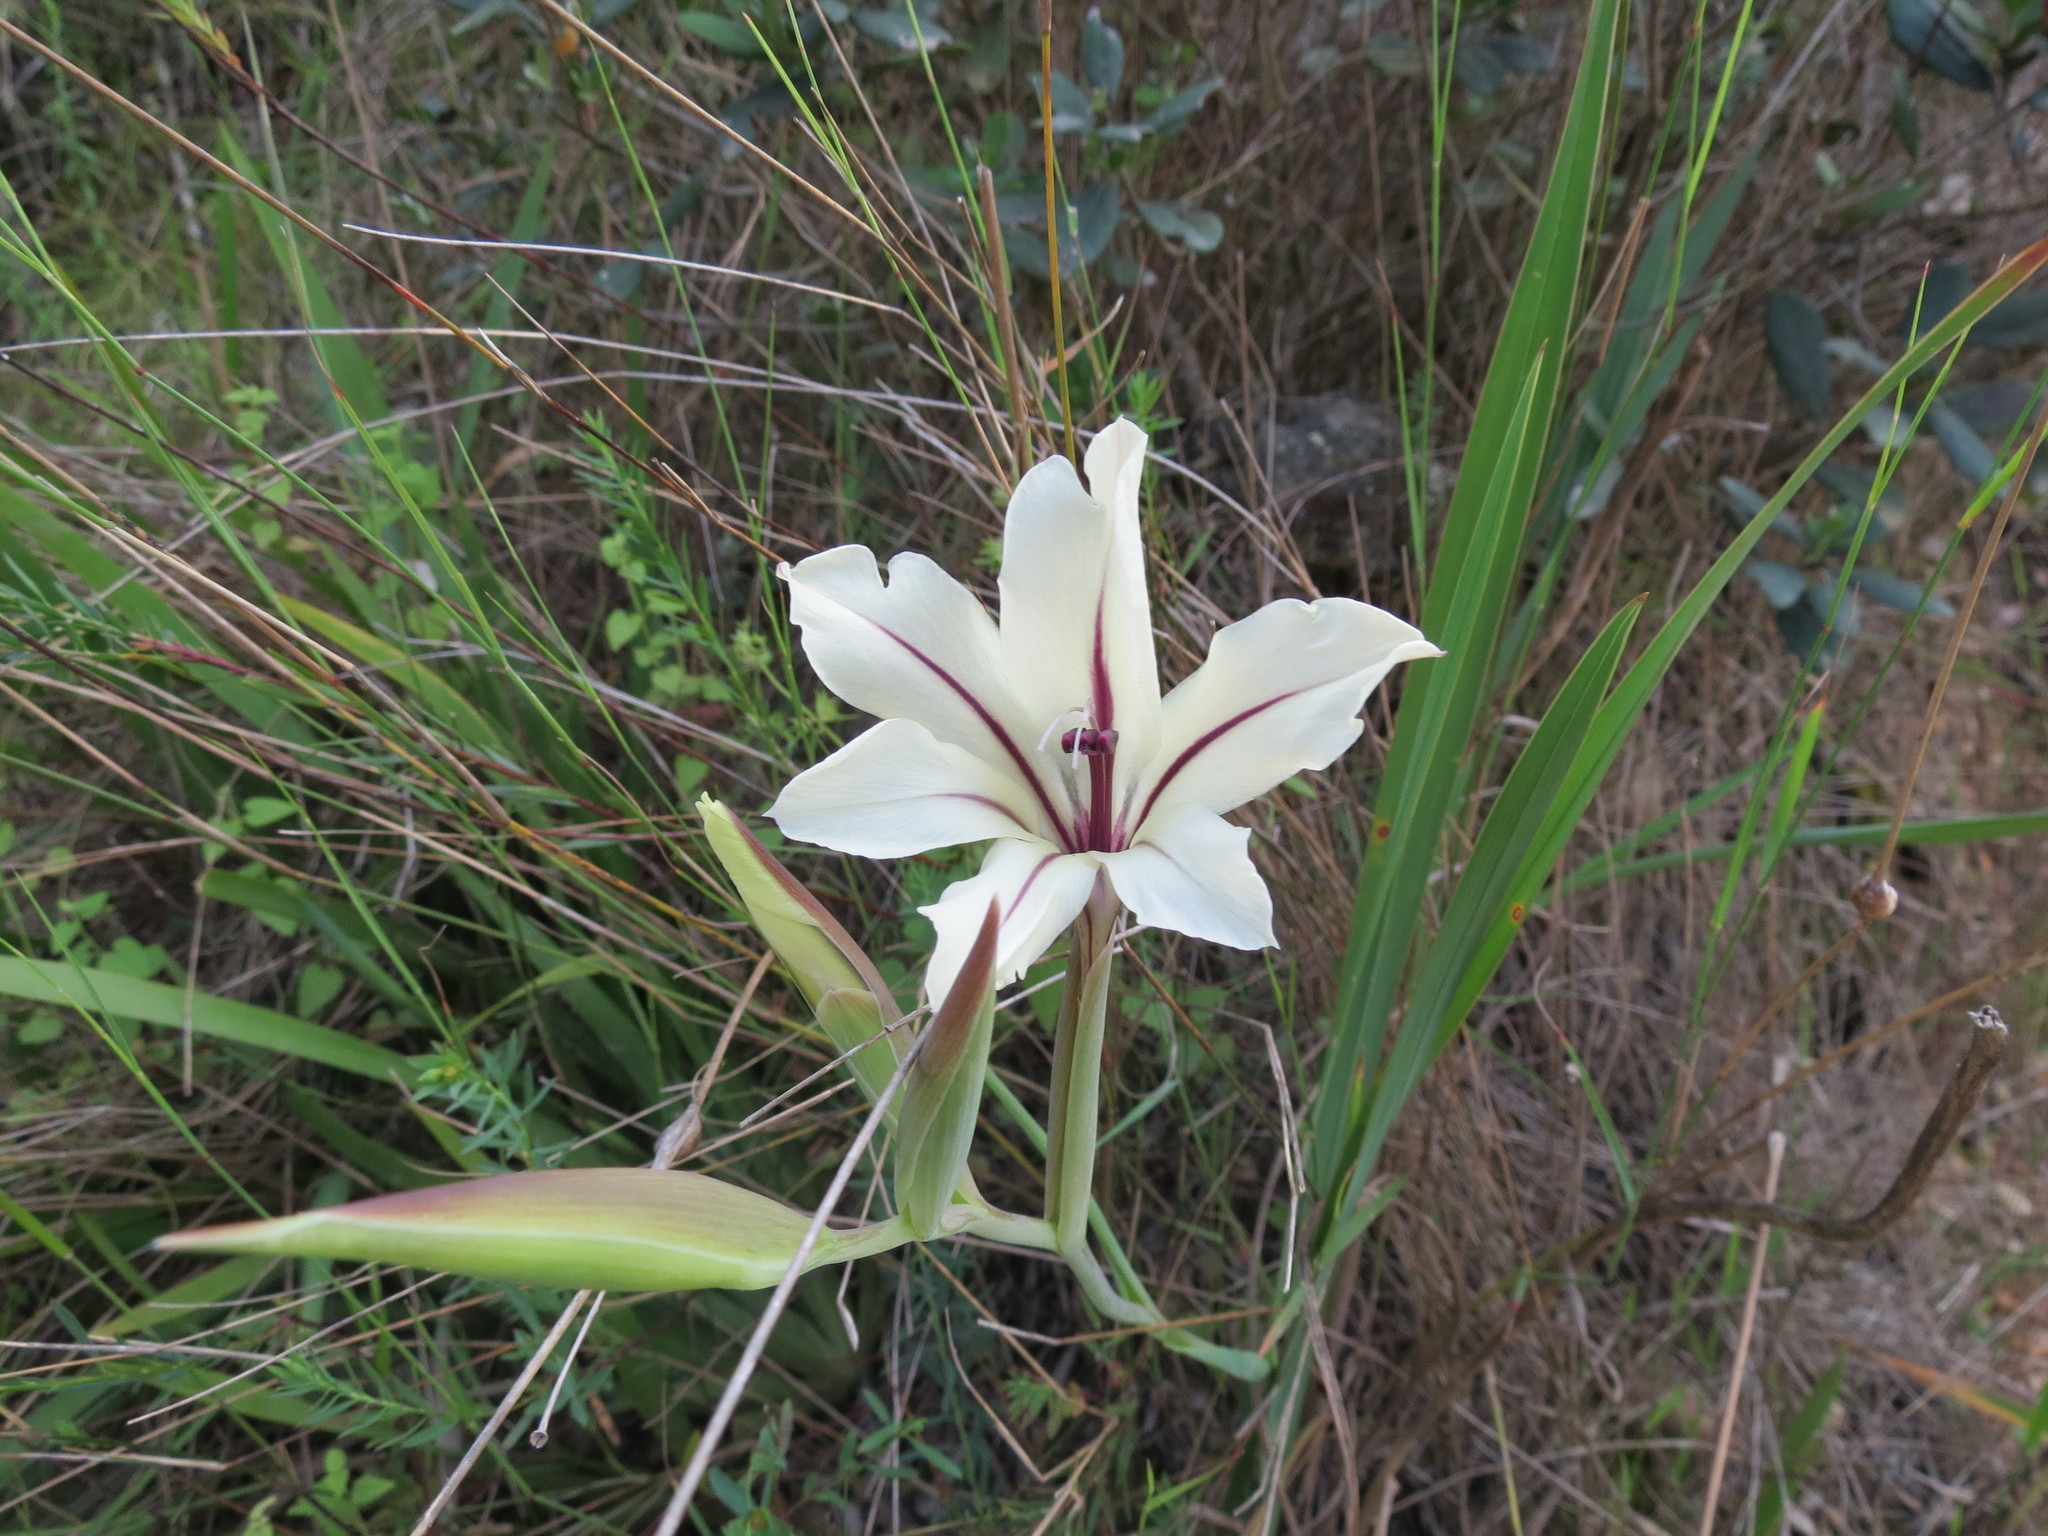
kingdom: Plantae
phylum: Tracheophyta
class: Liliopsida
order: Asparagales
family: Iridaceae
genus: Gladiolus
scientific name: Gladiolus floribundus
